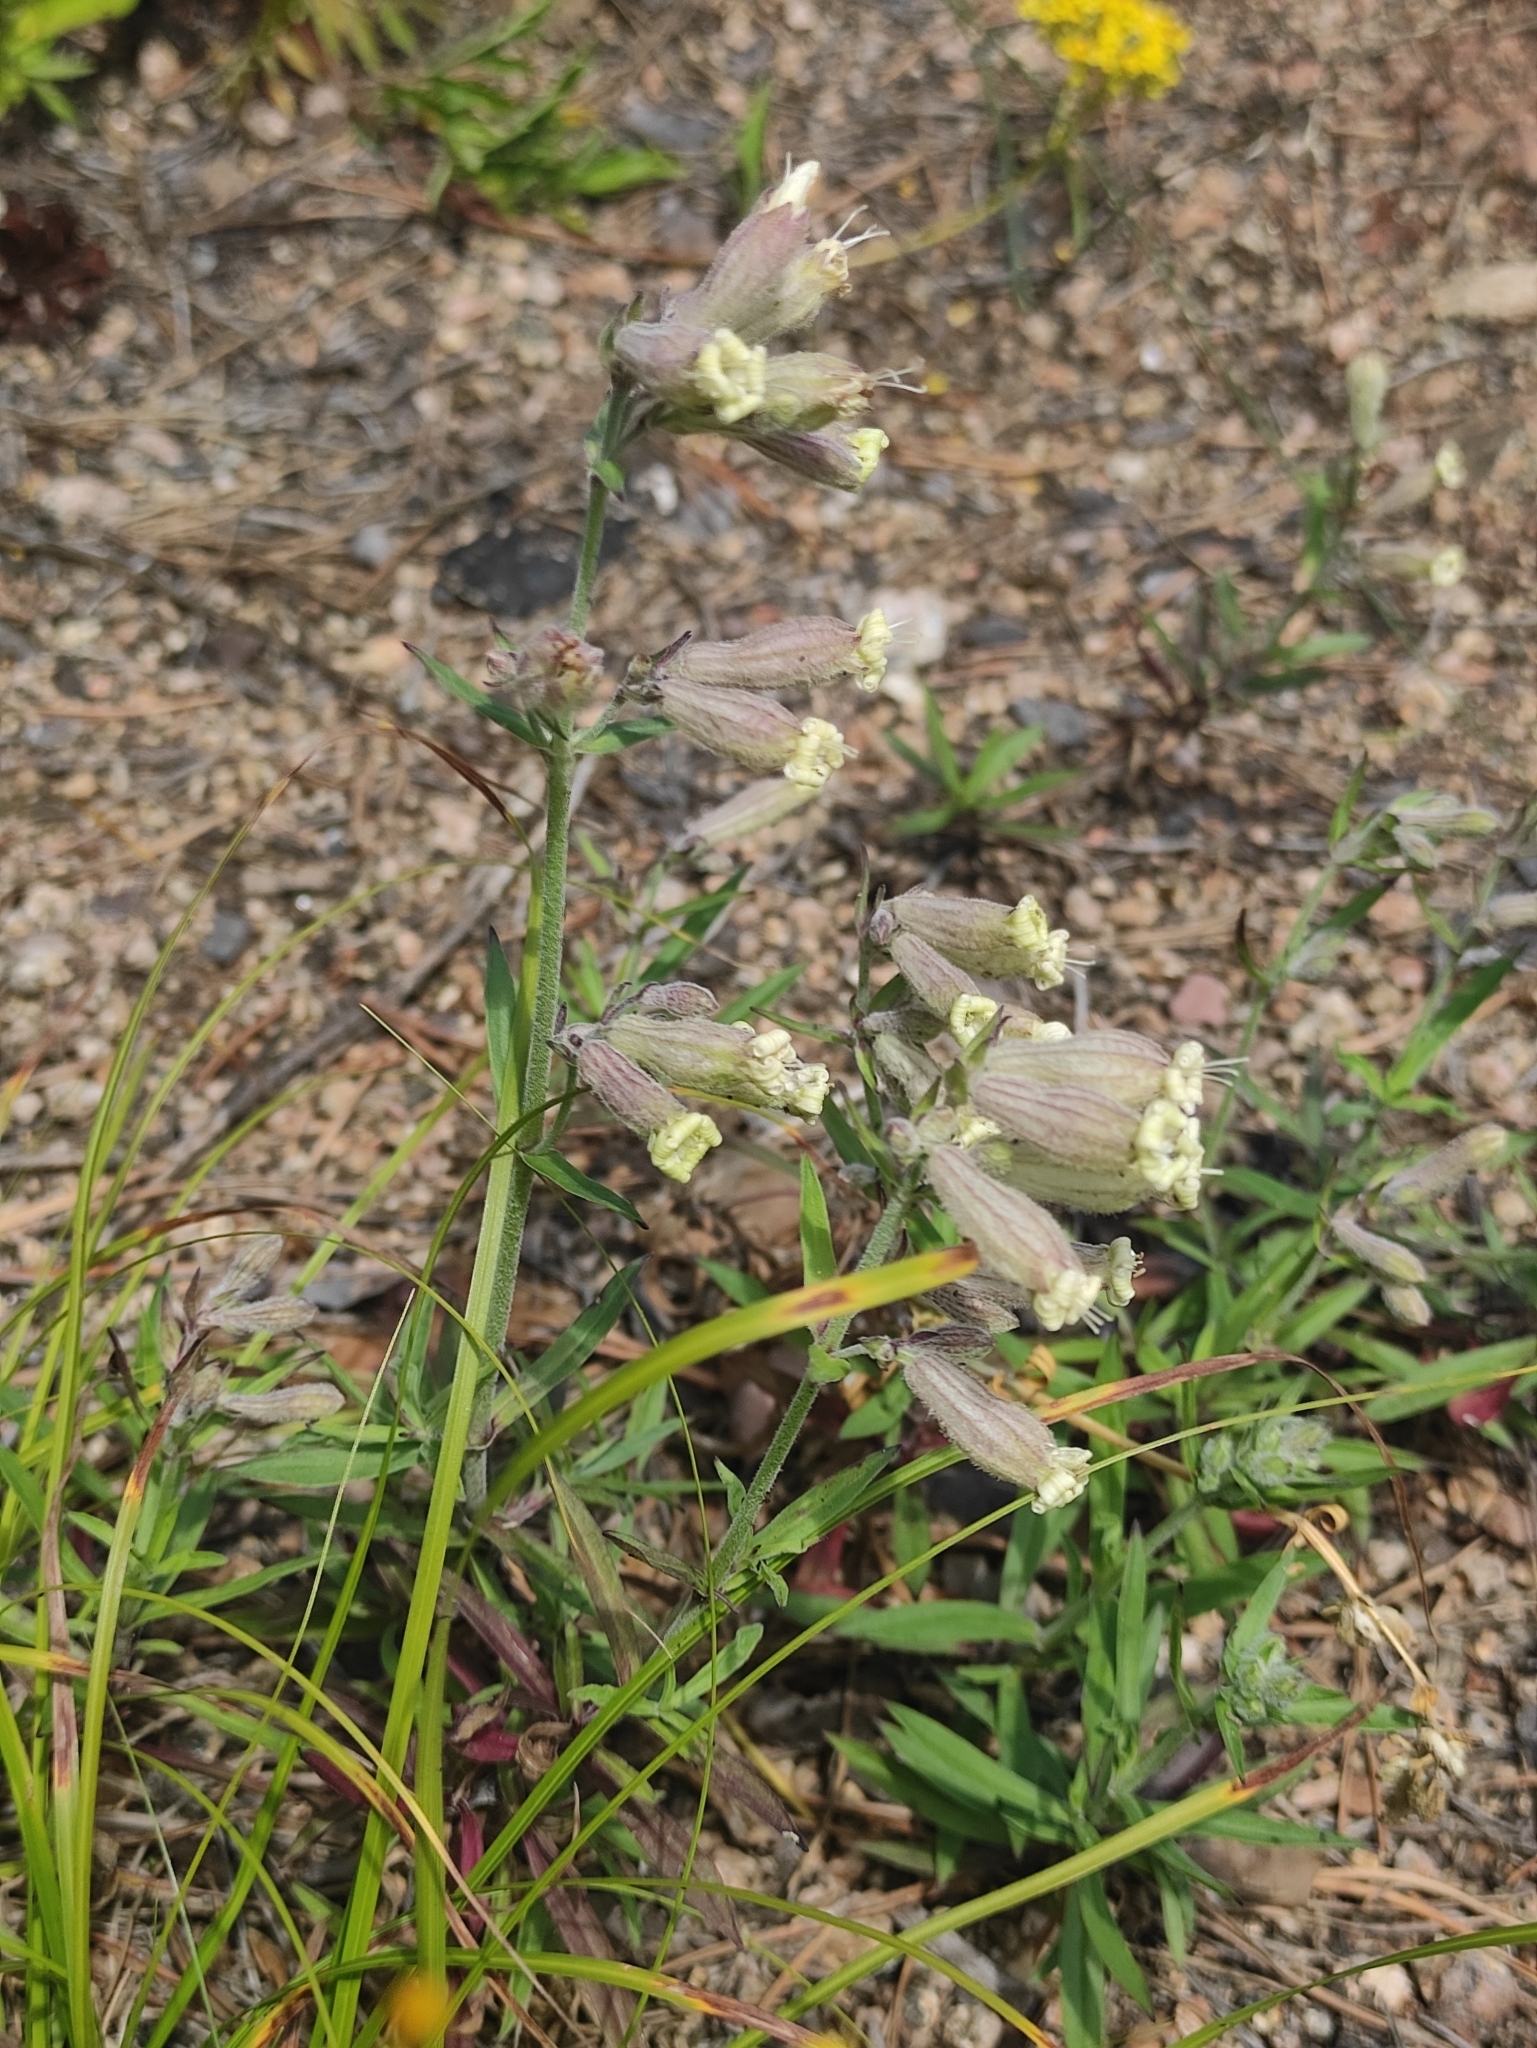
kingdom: Plantae
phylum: Tracheophyta
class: Magnoliopsida
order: Caryophyllales
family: Caryophyllaceae
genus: Silene
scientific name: Silene amoena
